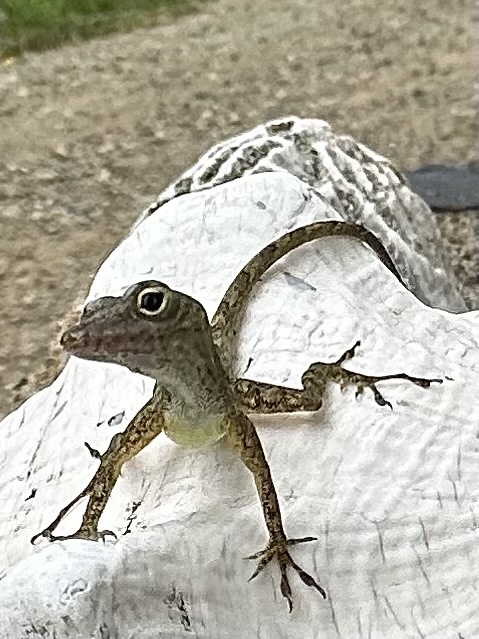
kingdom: Animalia
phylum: Chordata
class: Squamata
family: Dactyloidae
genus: Anolis
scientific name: Anolis cristatellus
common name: Crested anole
